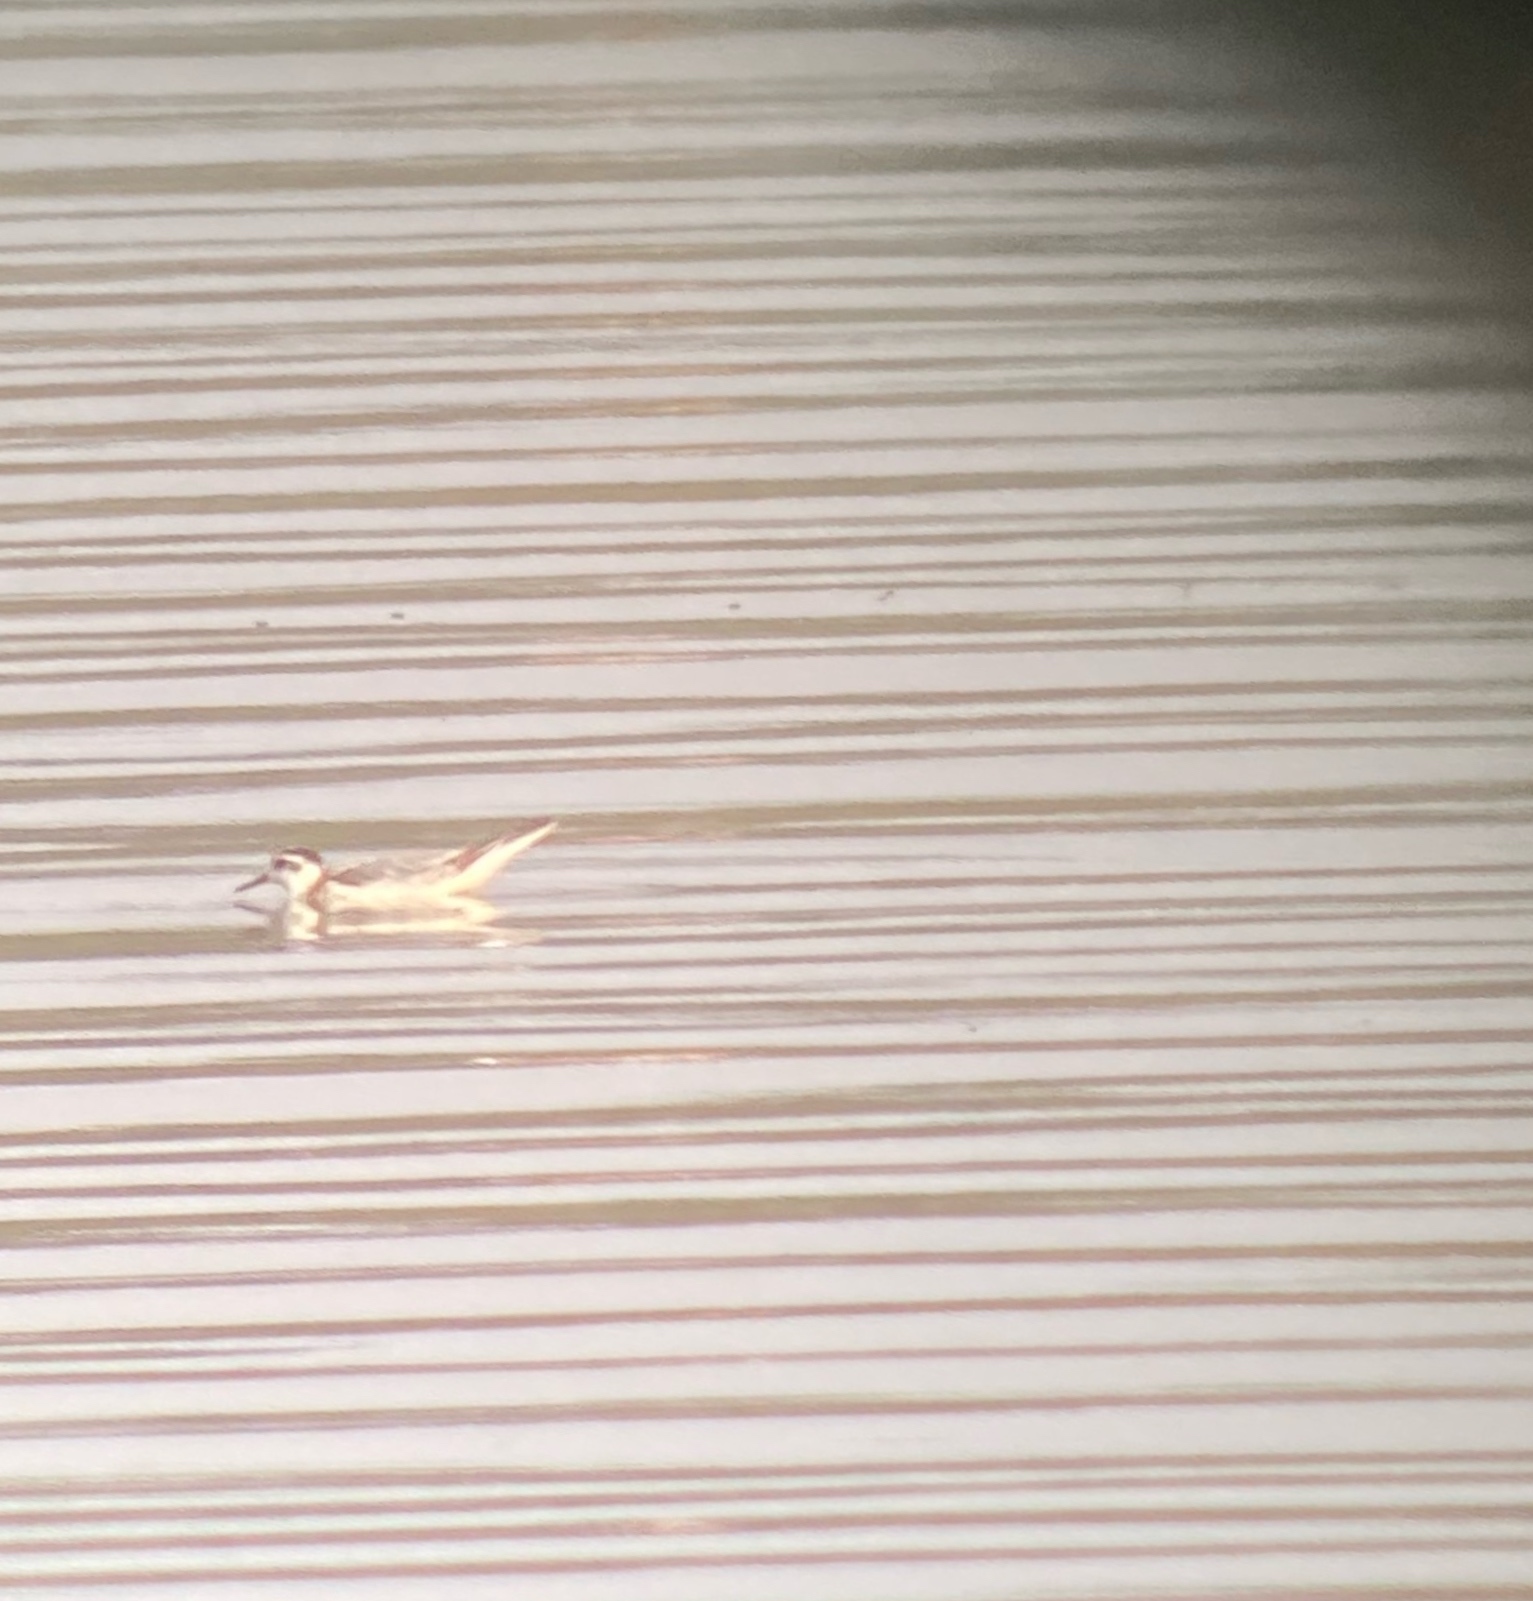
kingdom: Animalia
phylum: Chordata
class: Aves
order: Charadriiformes
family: Scolopacidae
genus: Phalaropus
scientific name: Phalaropus fulicarius
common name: Red phalarope
